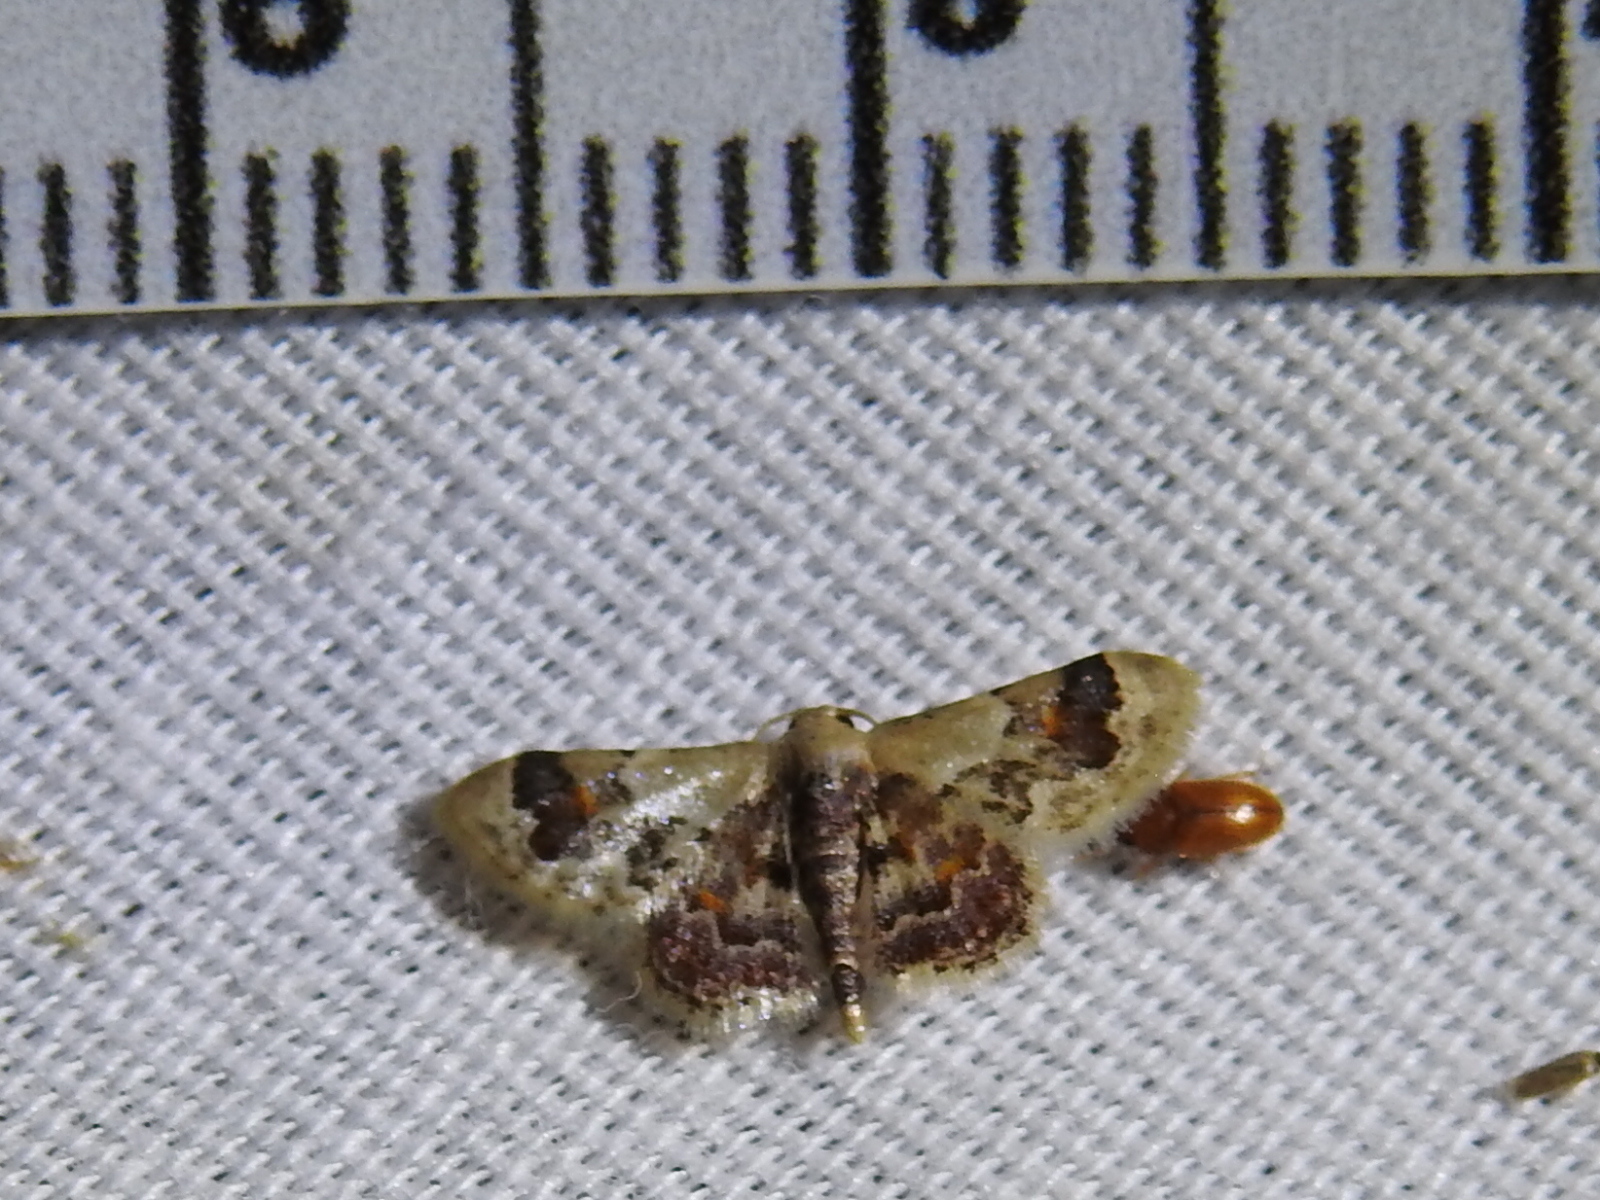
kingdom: Animalia
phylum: Arthropoda
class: Insecta
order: Lepidoptera
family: Geometridae
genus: Idaea
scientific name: Idaea asceta
